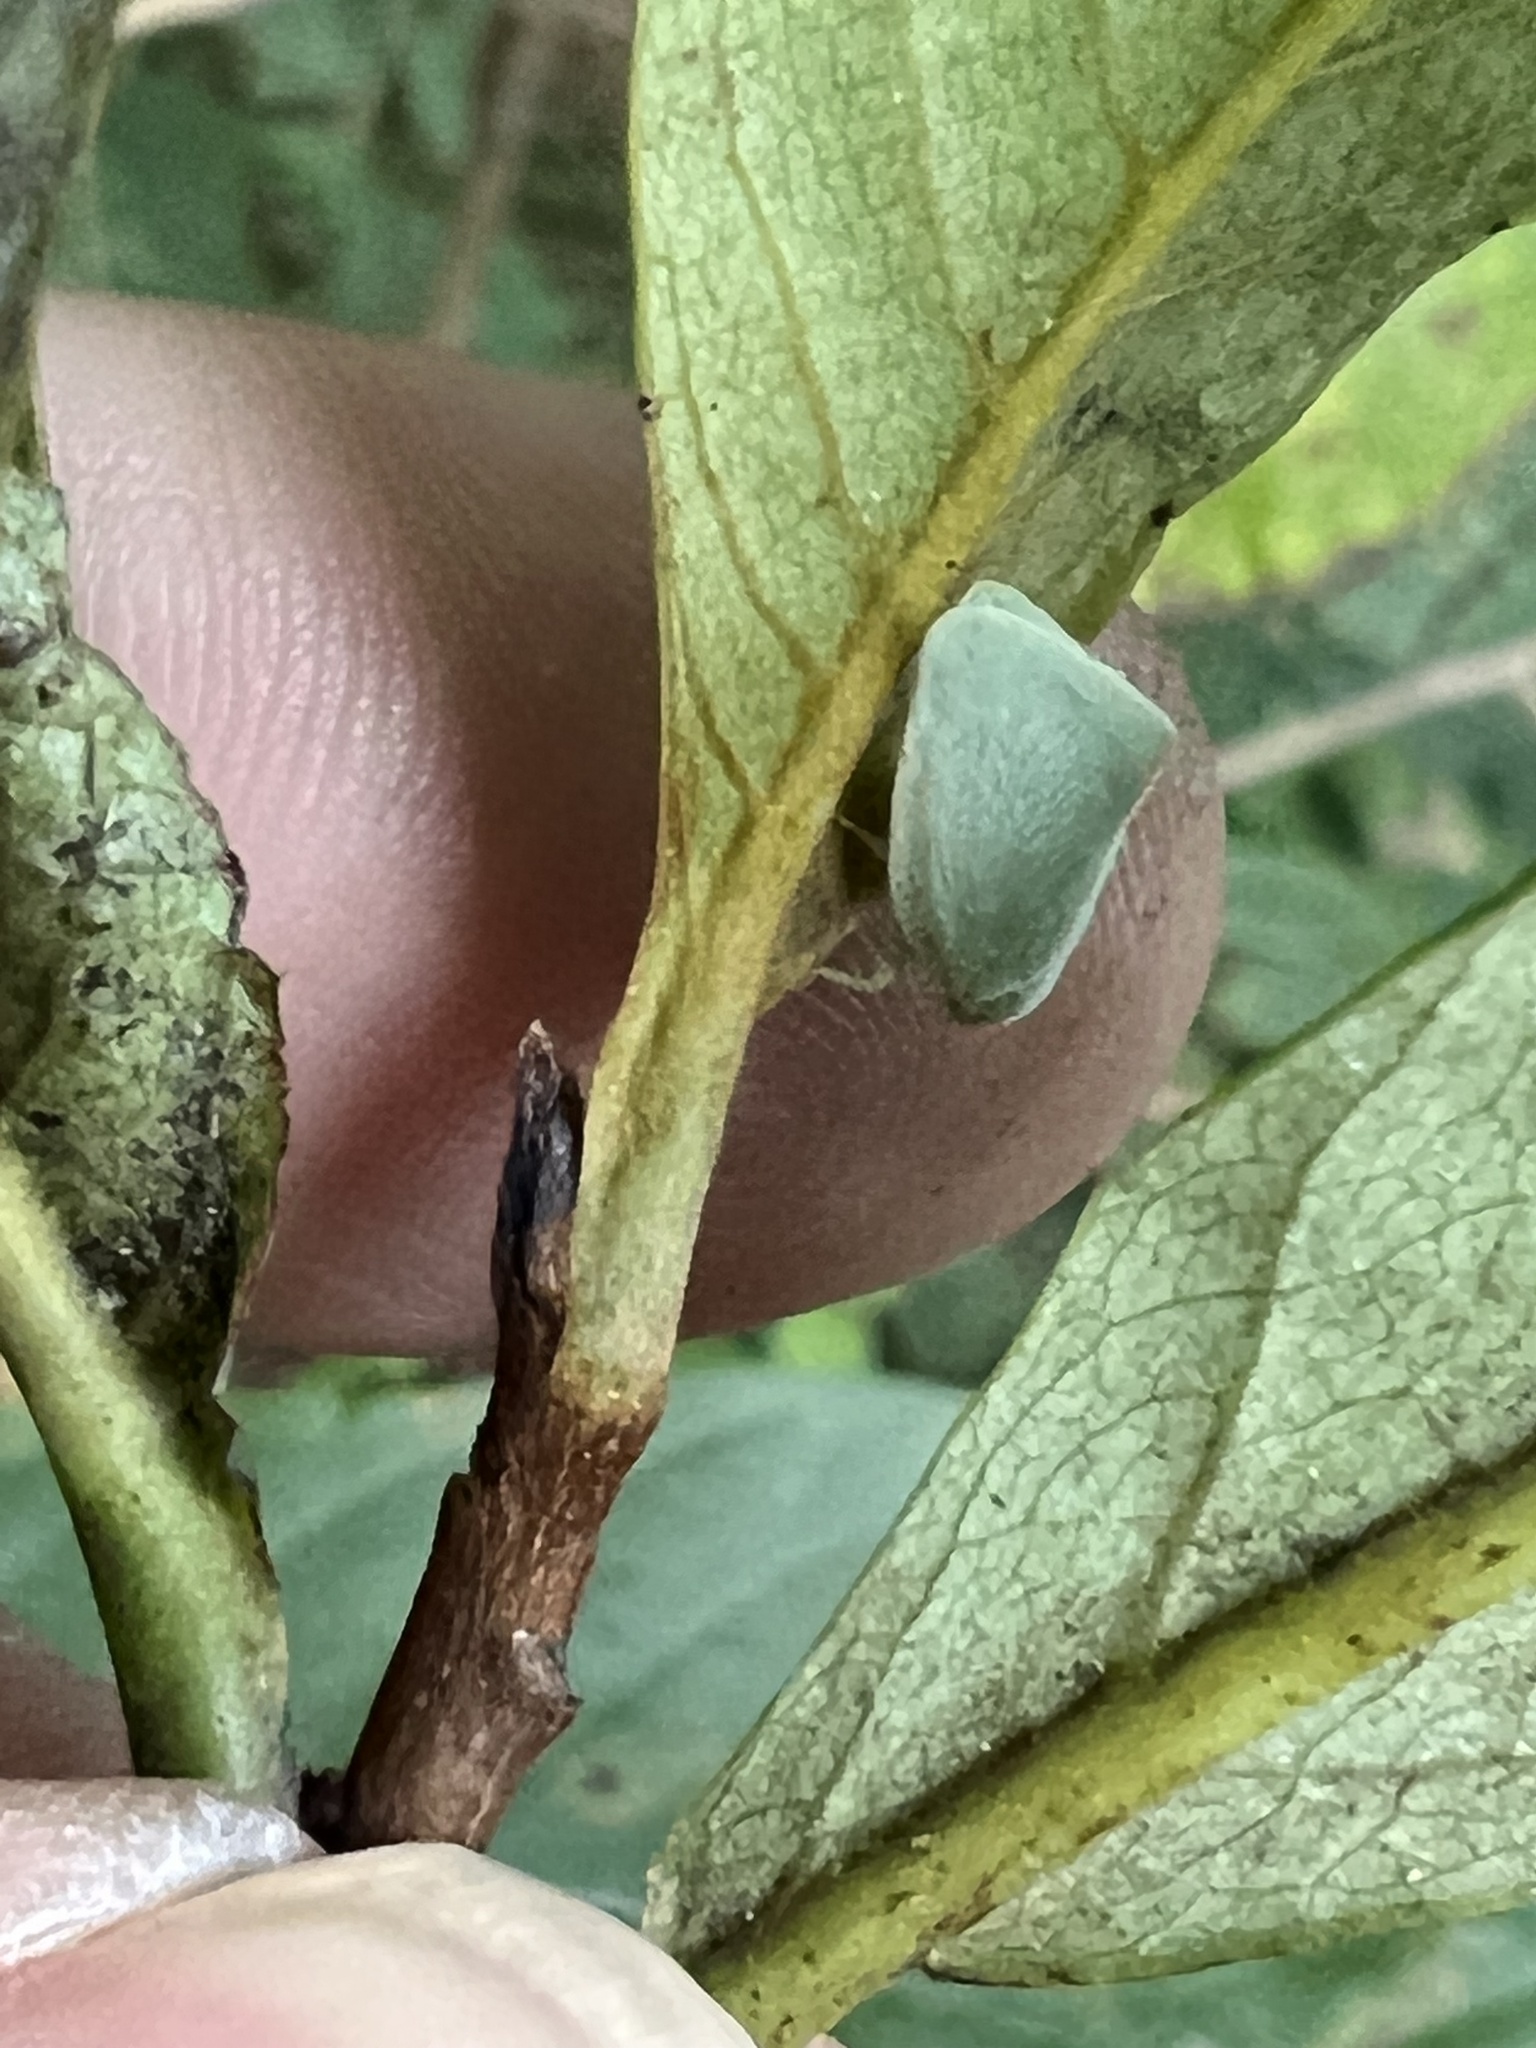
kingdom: Animalia
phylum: Arthropoda
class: Insecta
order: Hemiptera
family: Flatidae
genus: Flatormenis
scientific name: Flatormenis proxima
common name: Northern flatid planthopper
